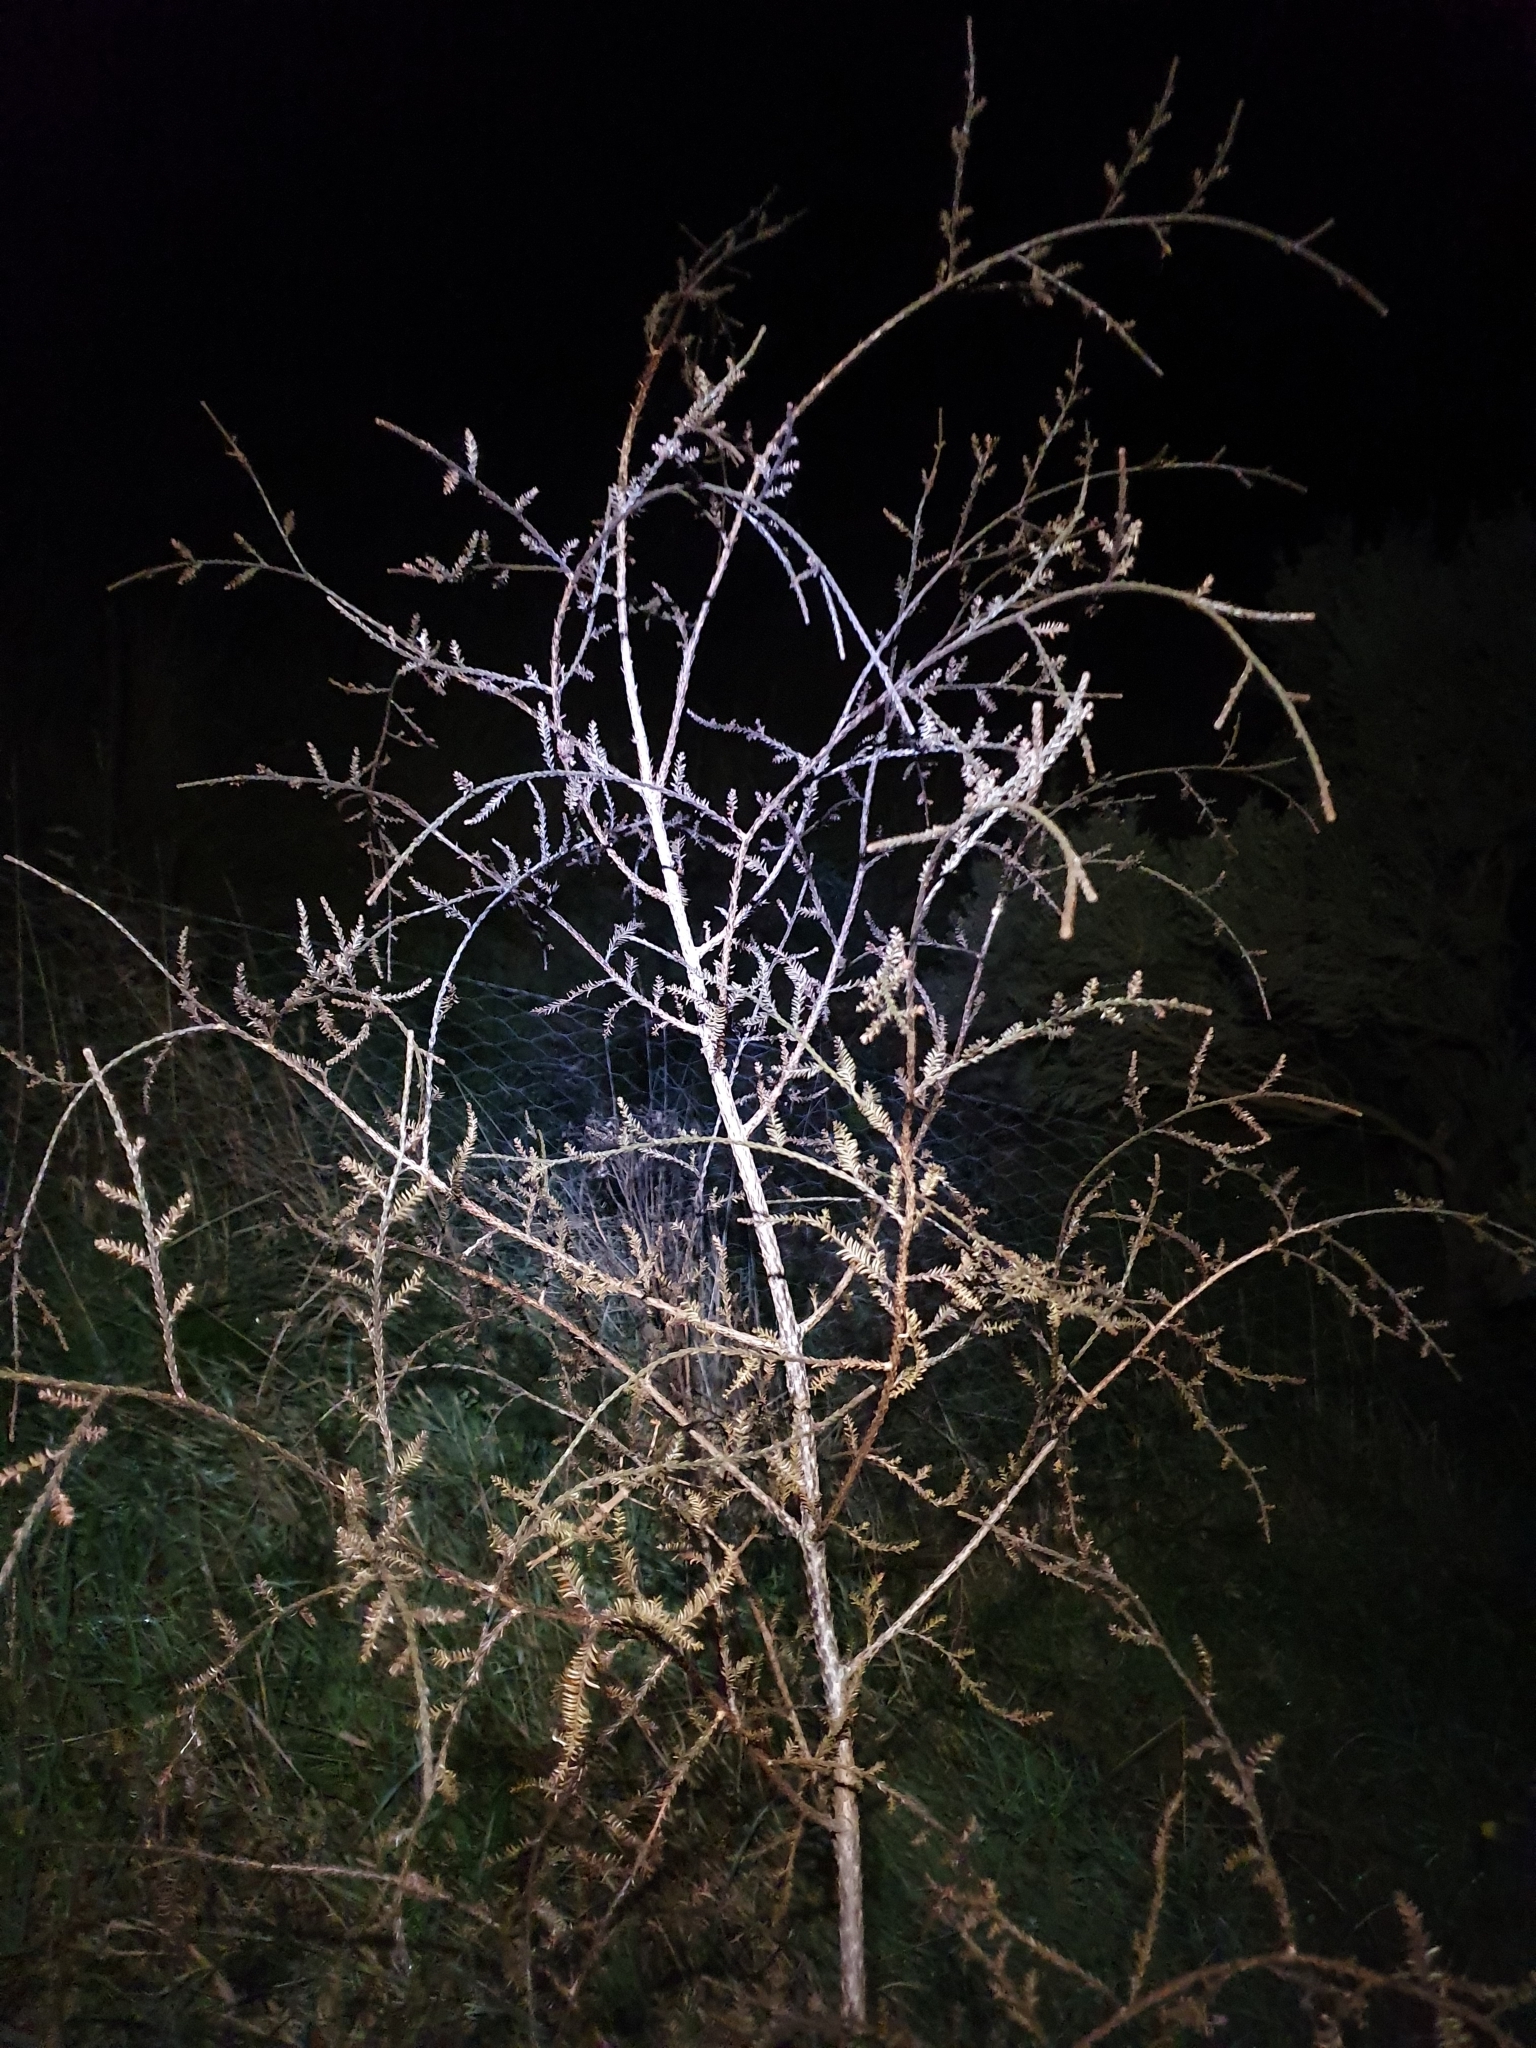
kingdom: Plantae
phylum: Tracheophyta
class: Pinopsida
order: Pinales
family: Podocarpaceae
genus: Dacrycarpus
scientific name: Dacrycarpus dacrydioides
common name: White pine
